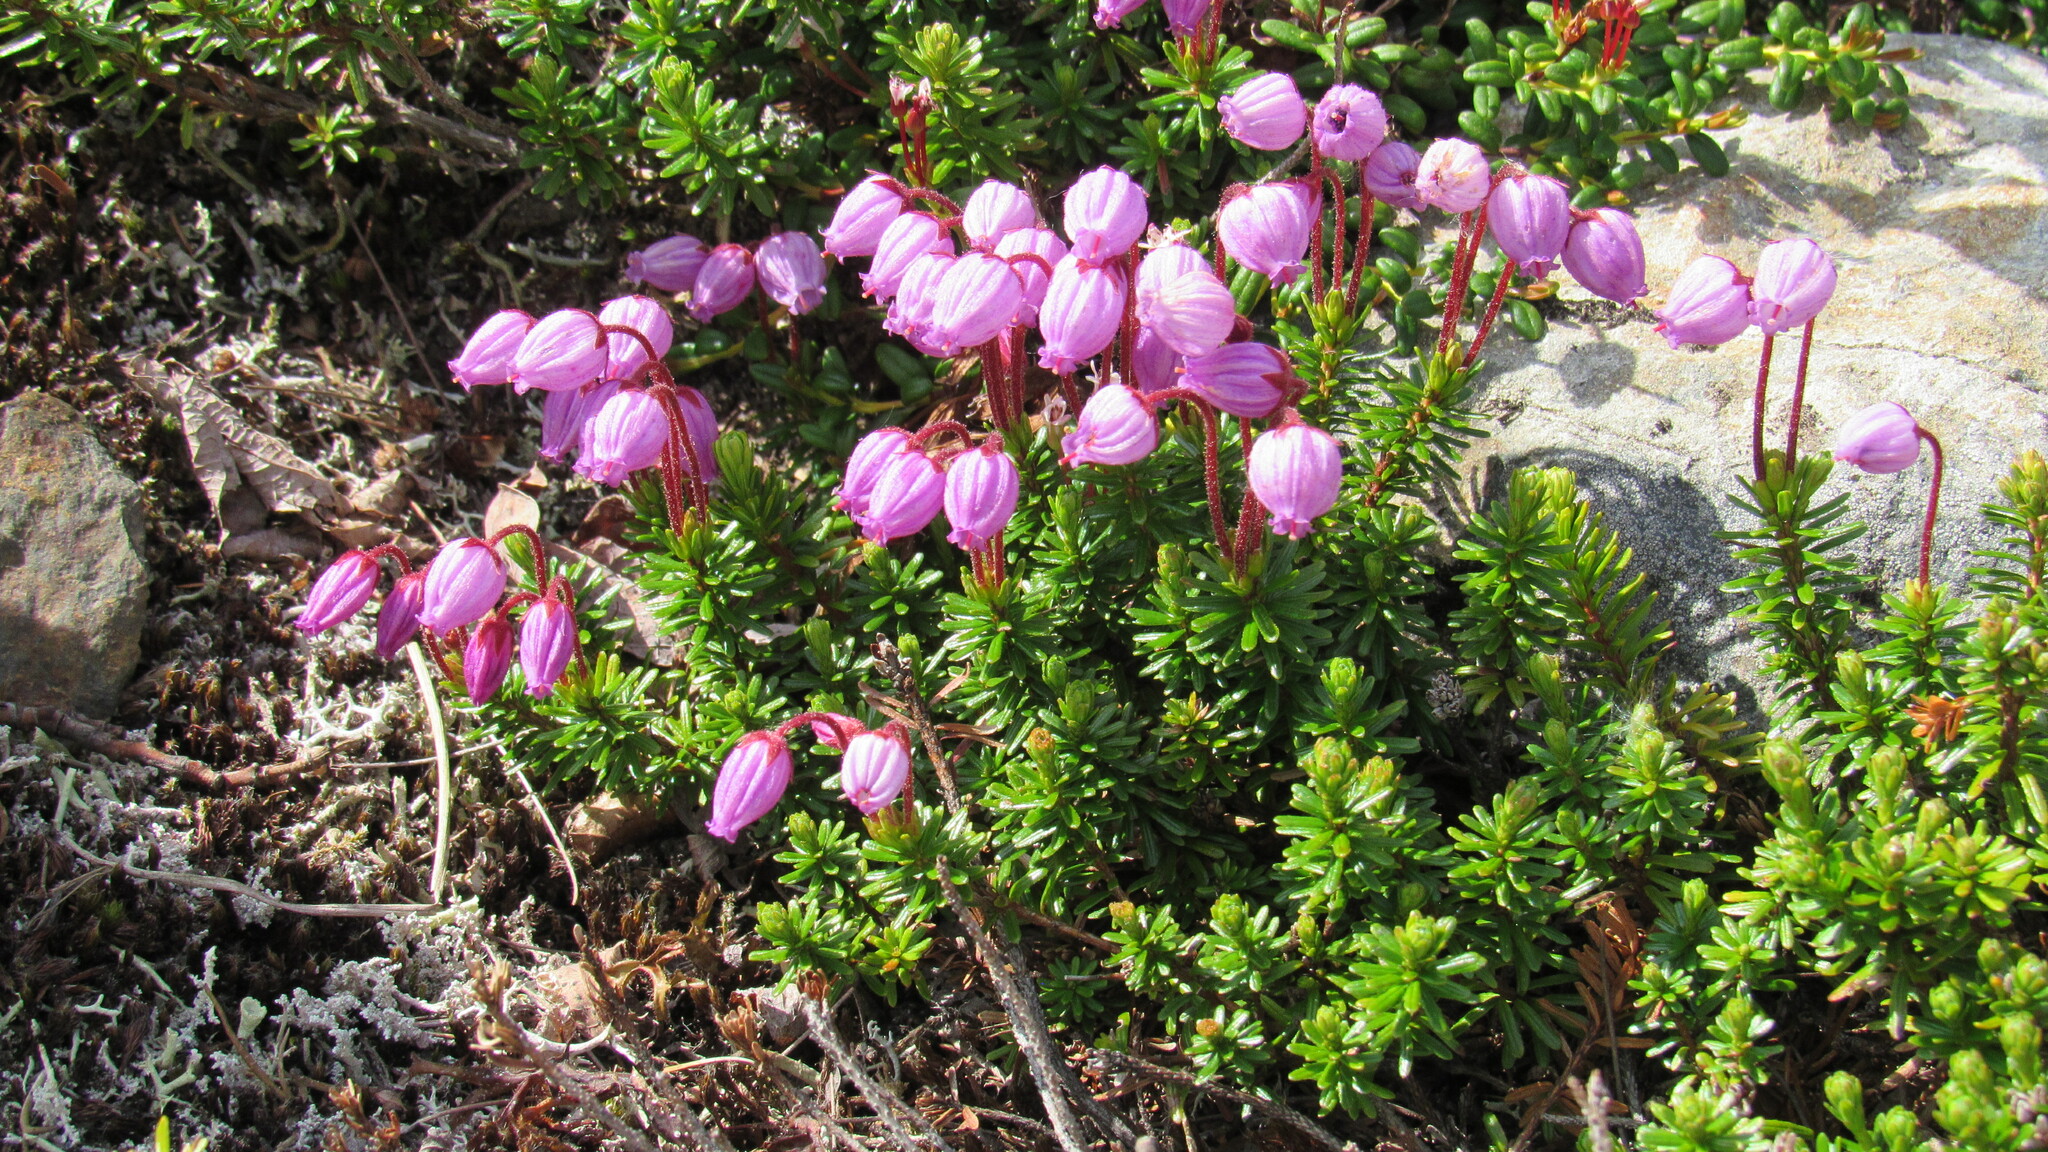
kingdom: Plantae
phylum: Tracheophyta
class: Magnoliopsida
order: Ericales
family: Ericaceae
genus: Phyllodoce
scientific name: Phyllodoce caerulea
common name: Blue heath
